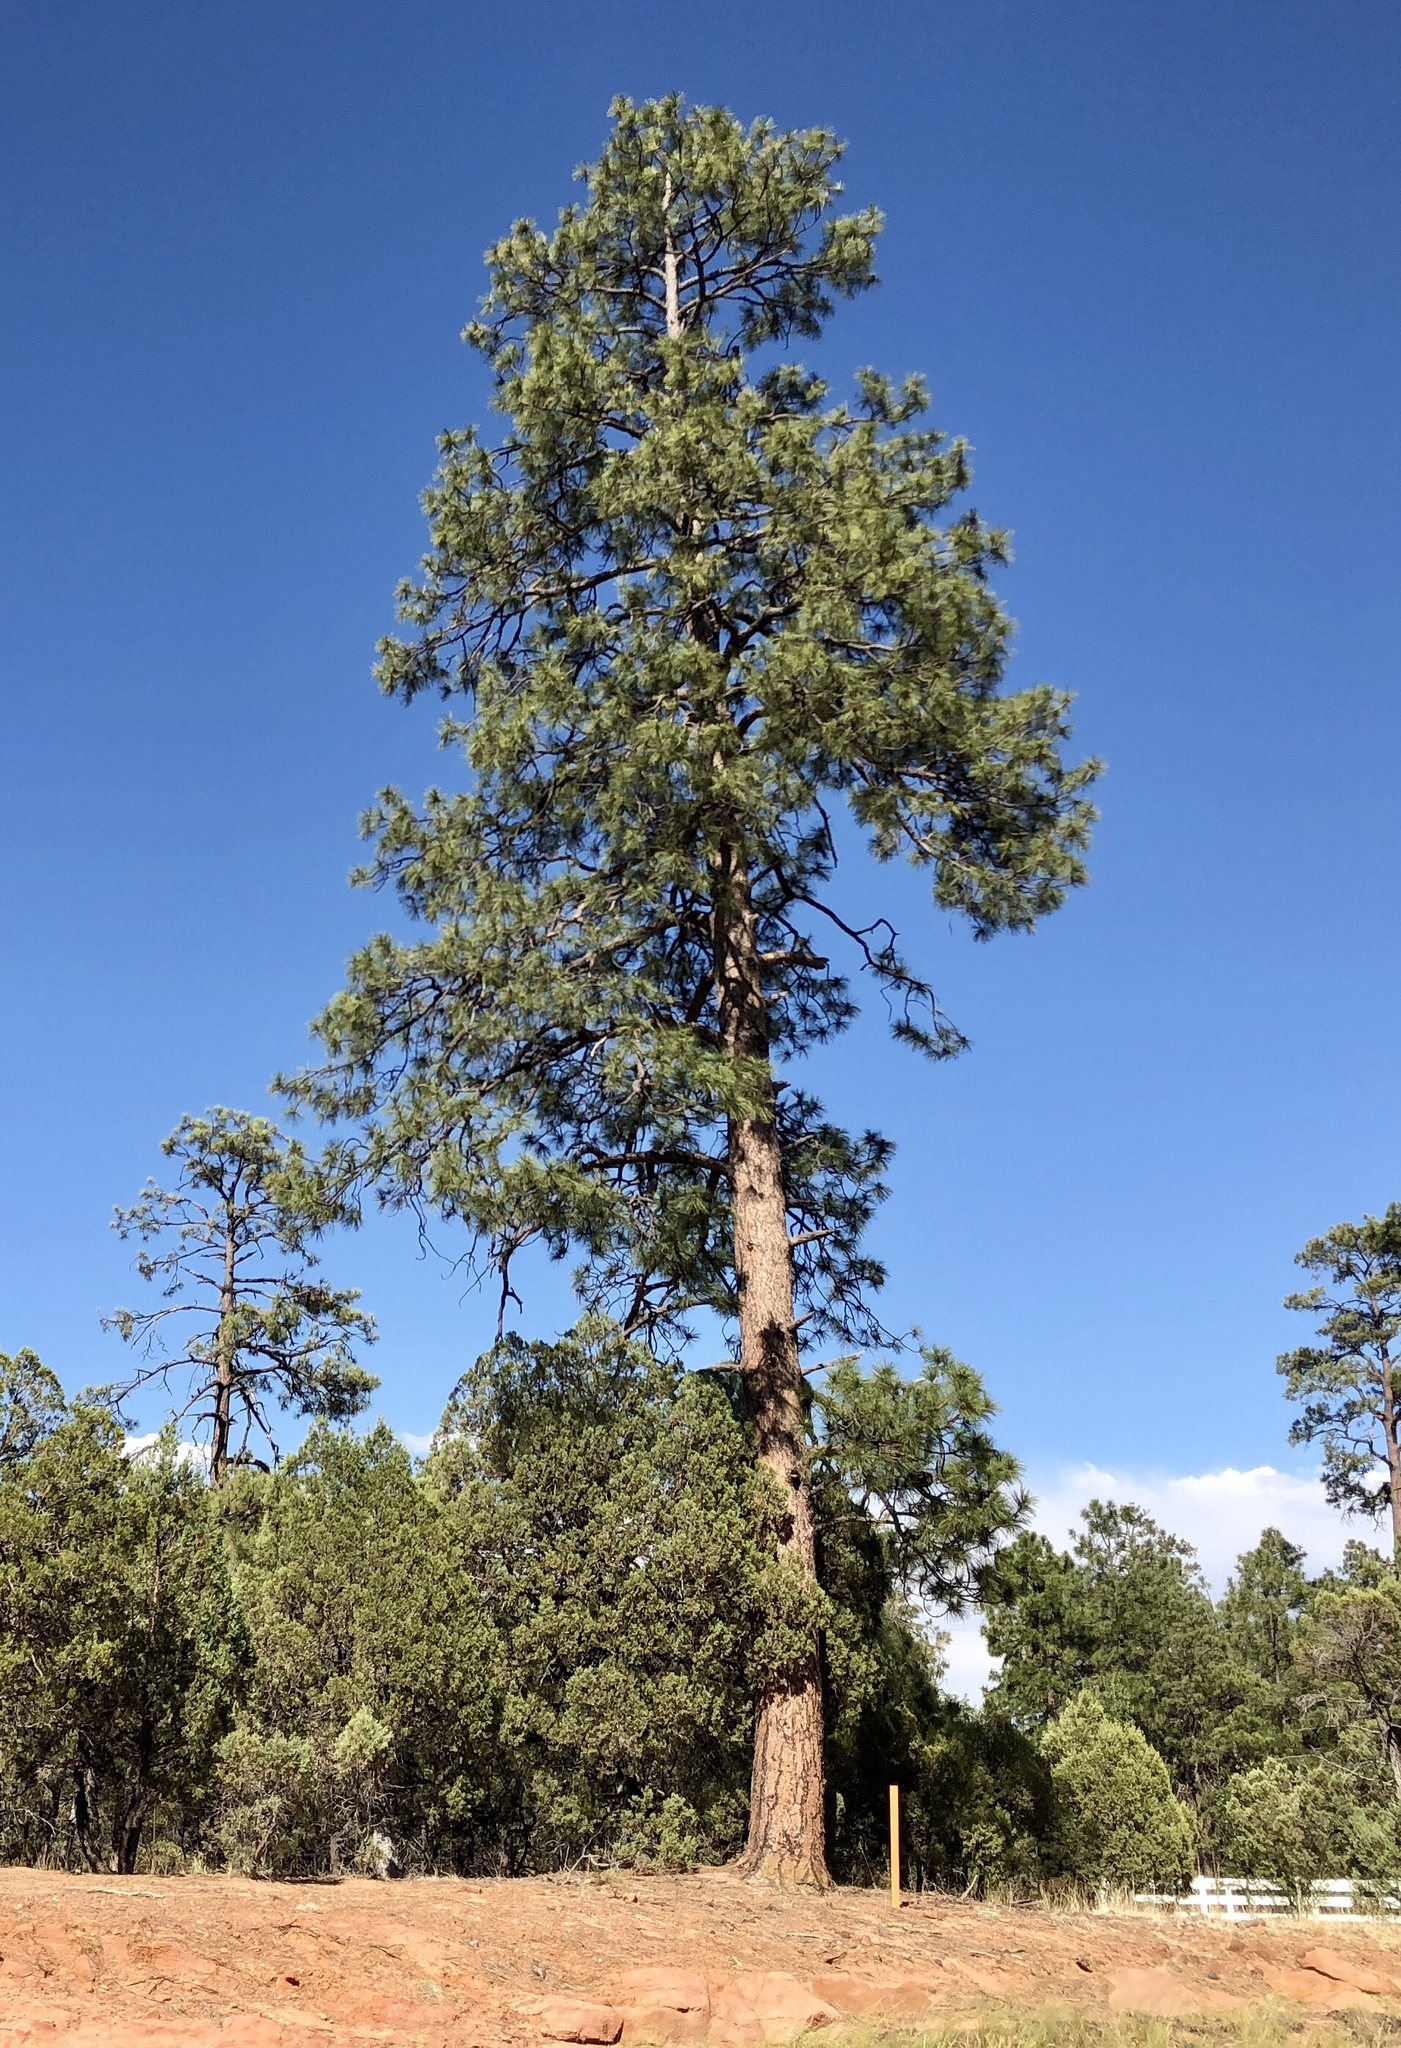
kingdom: Plantae
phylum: Tracheophyta
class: Pinopsida
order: Pinales
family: Pinaceae
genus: Pinus
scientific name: Pinus ponderosa
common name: Western yellow-pine
